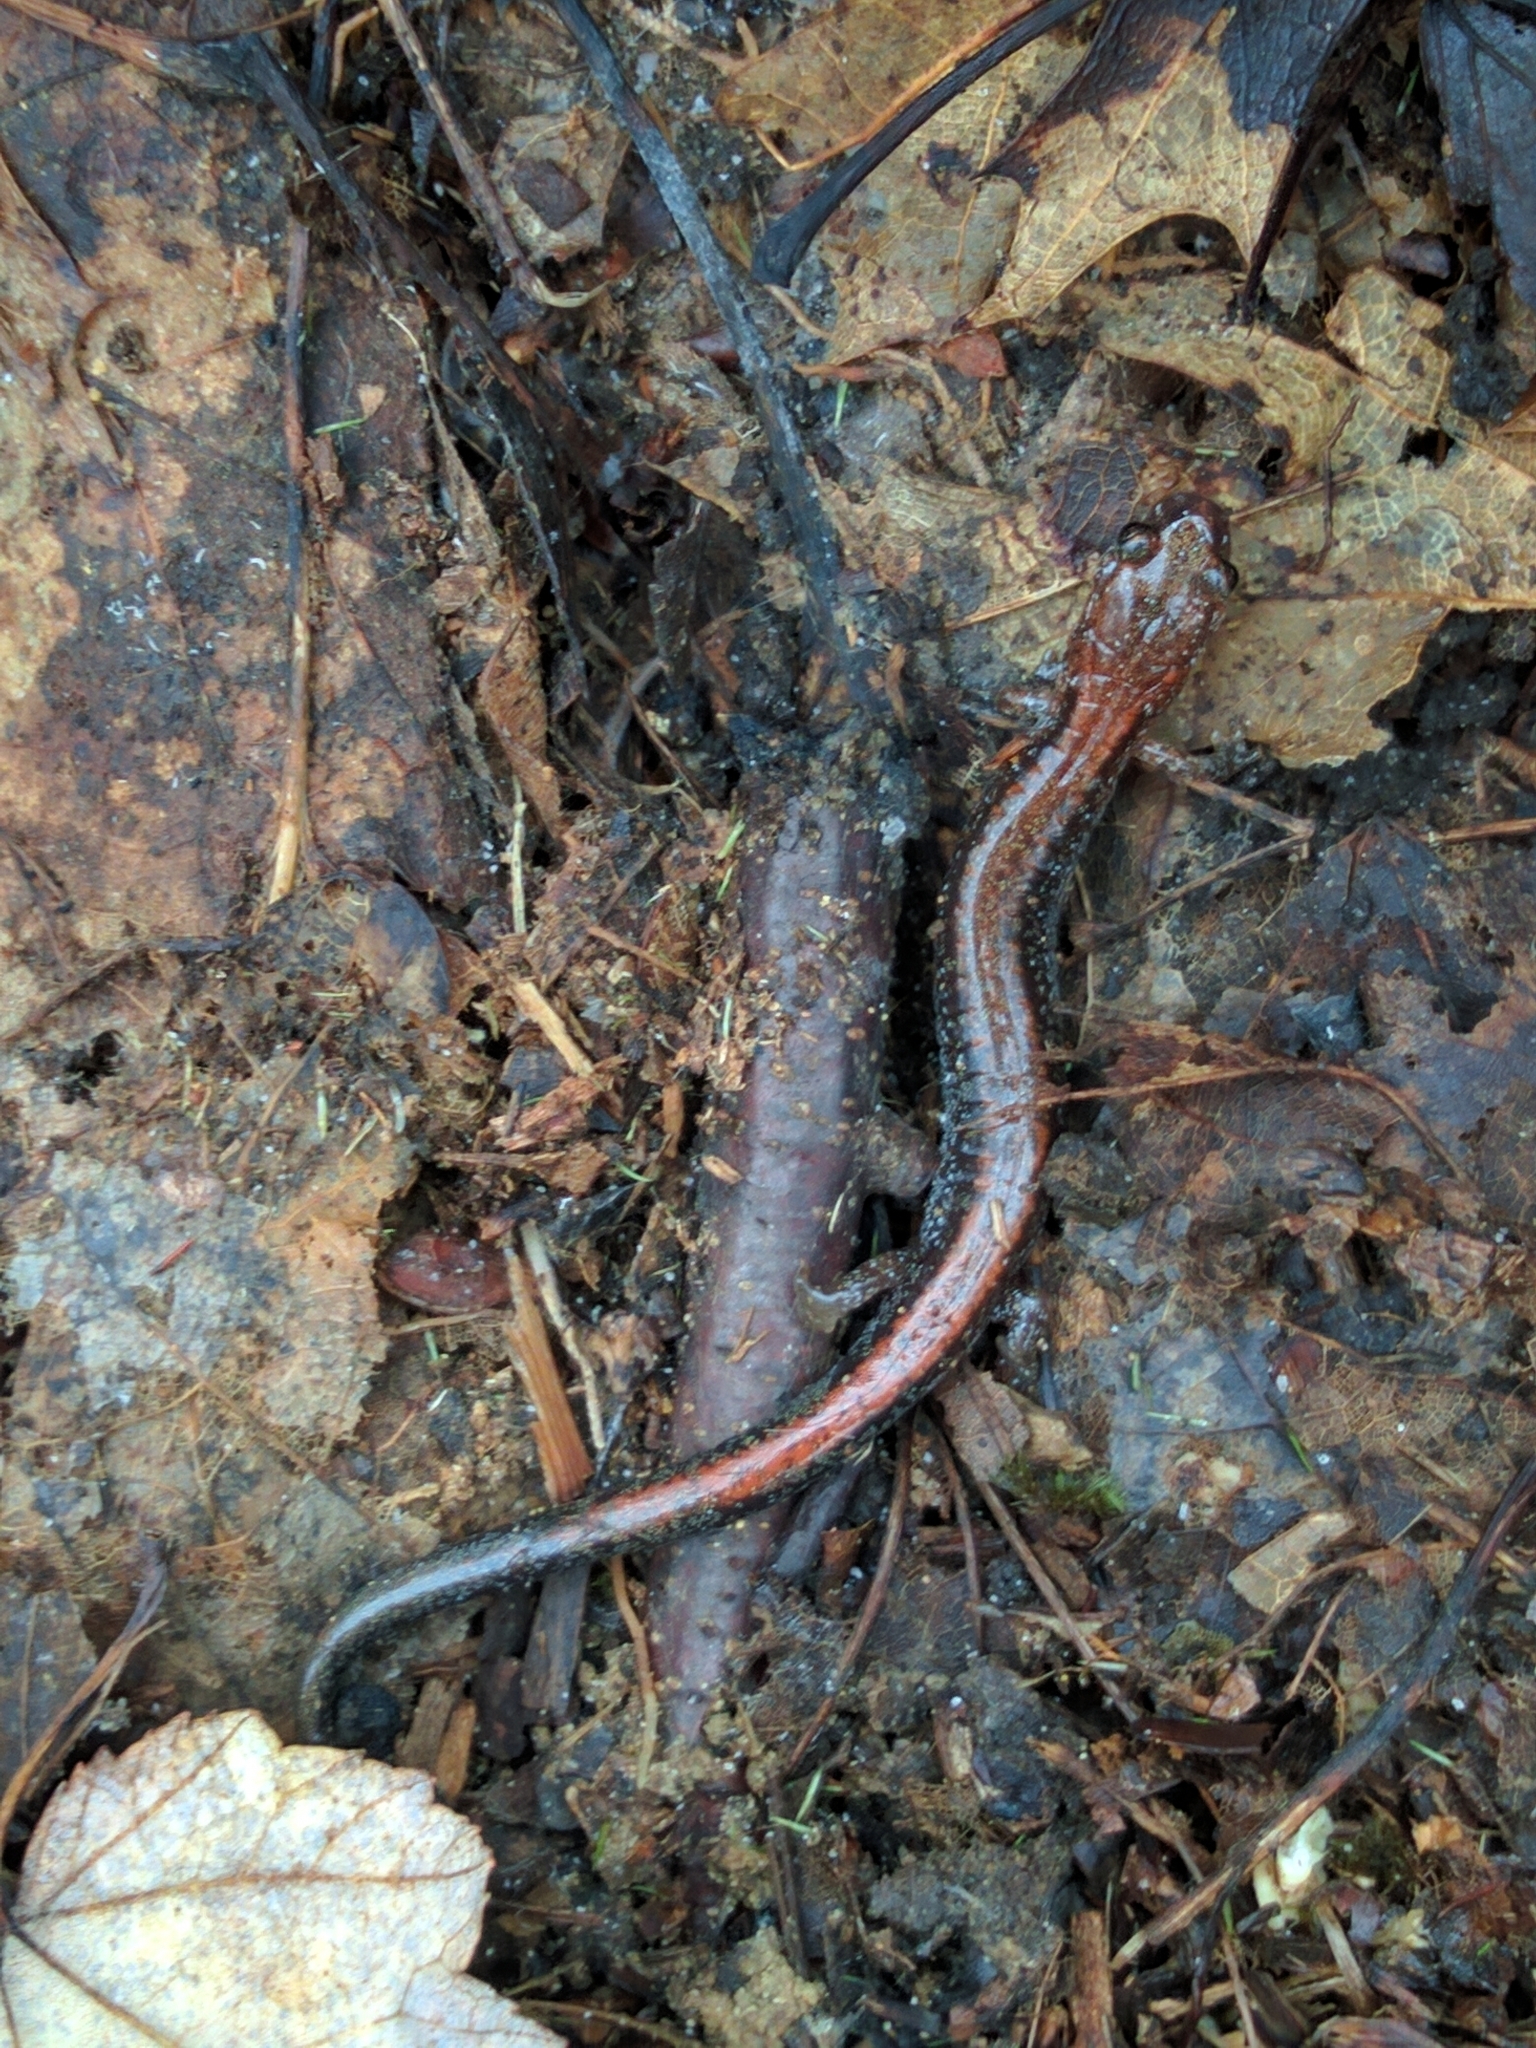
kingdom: Animalia
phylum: Chordata
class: Amphibia
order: Caudata
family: Plethodontidae
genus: Plethodon
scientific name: Plethodon cinereus
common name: Redback salamander
